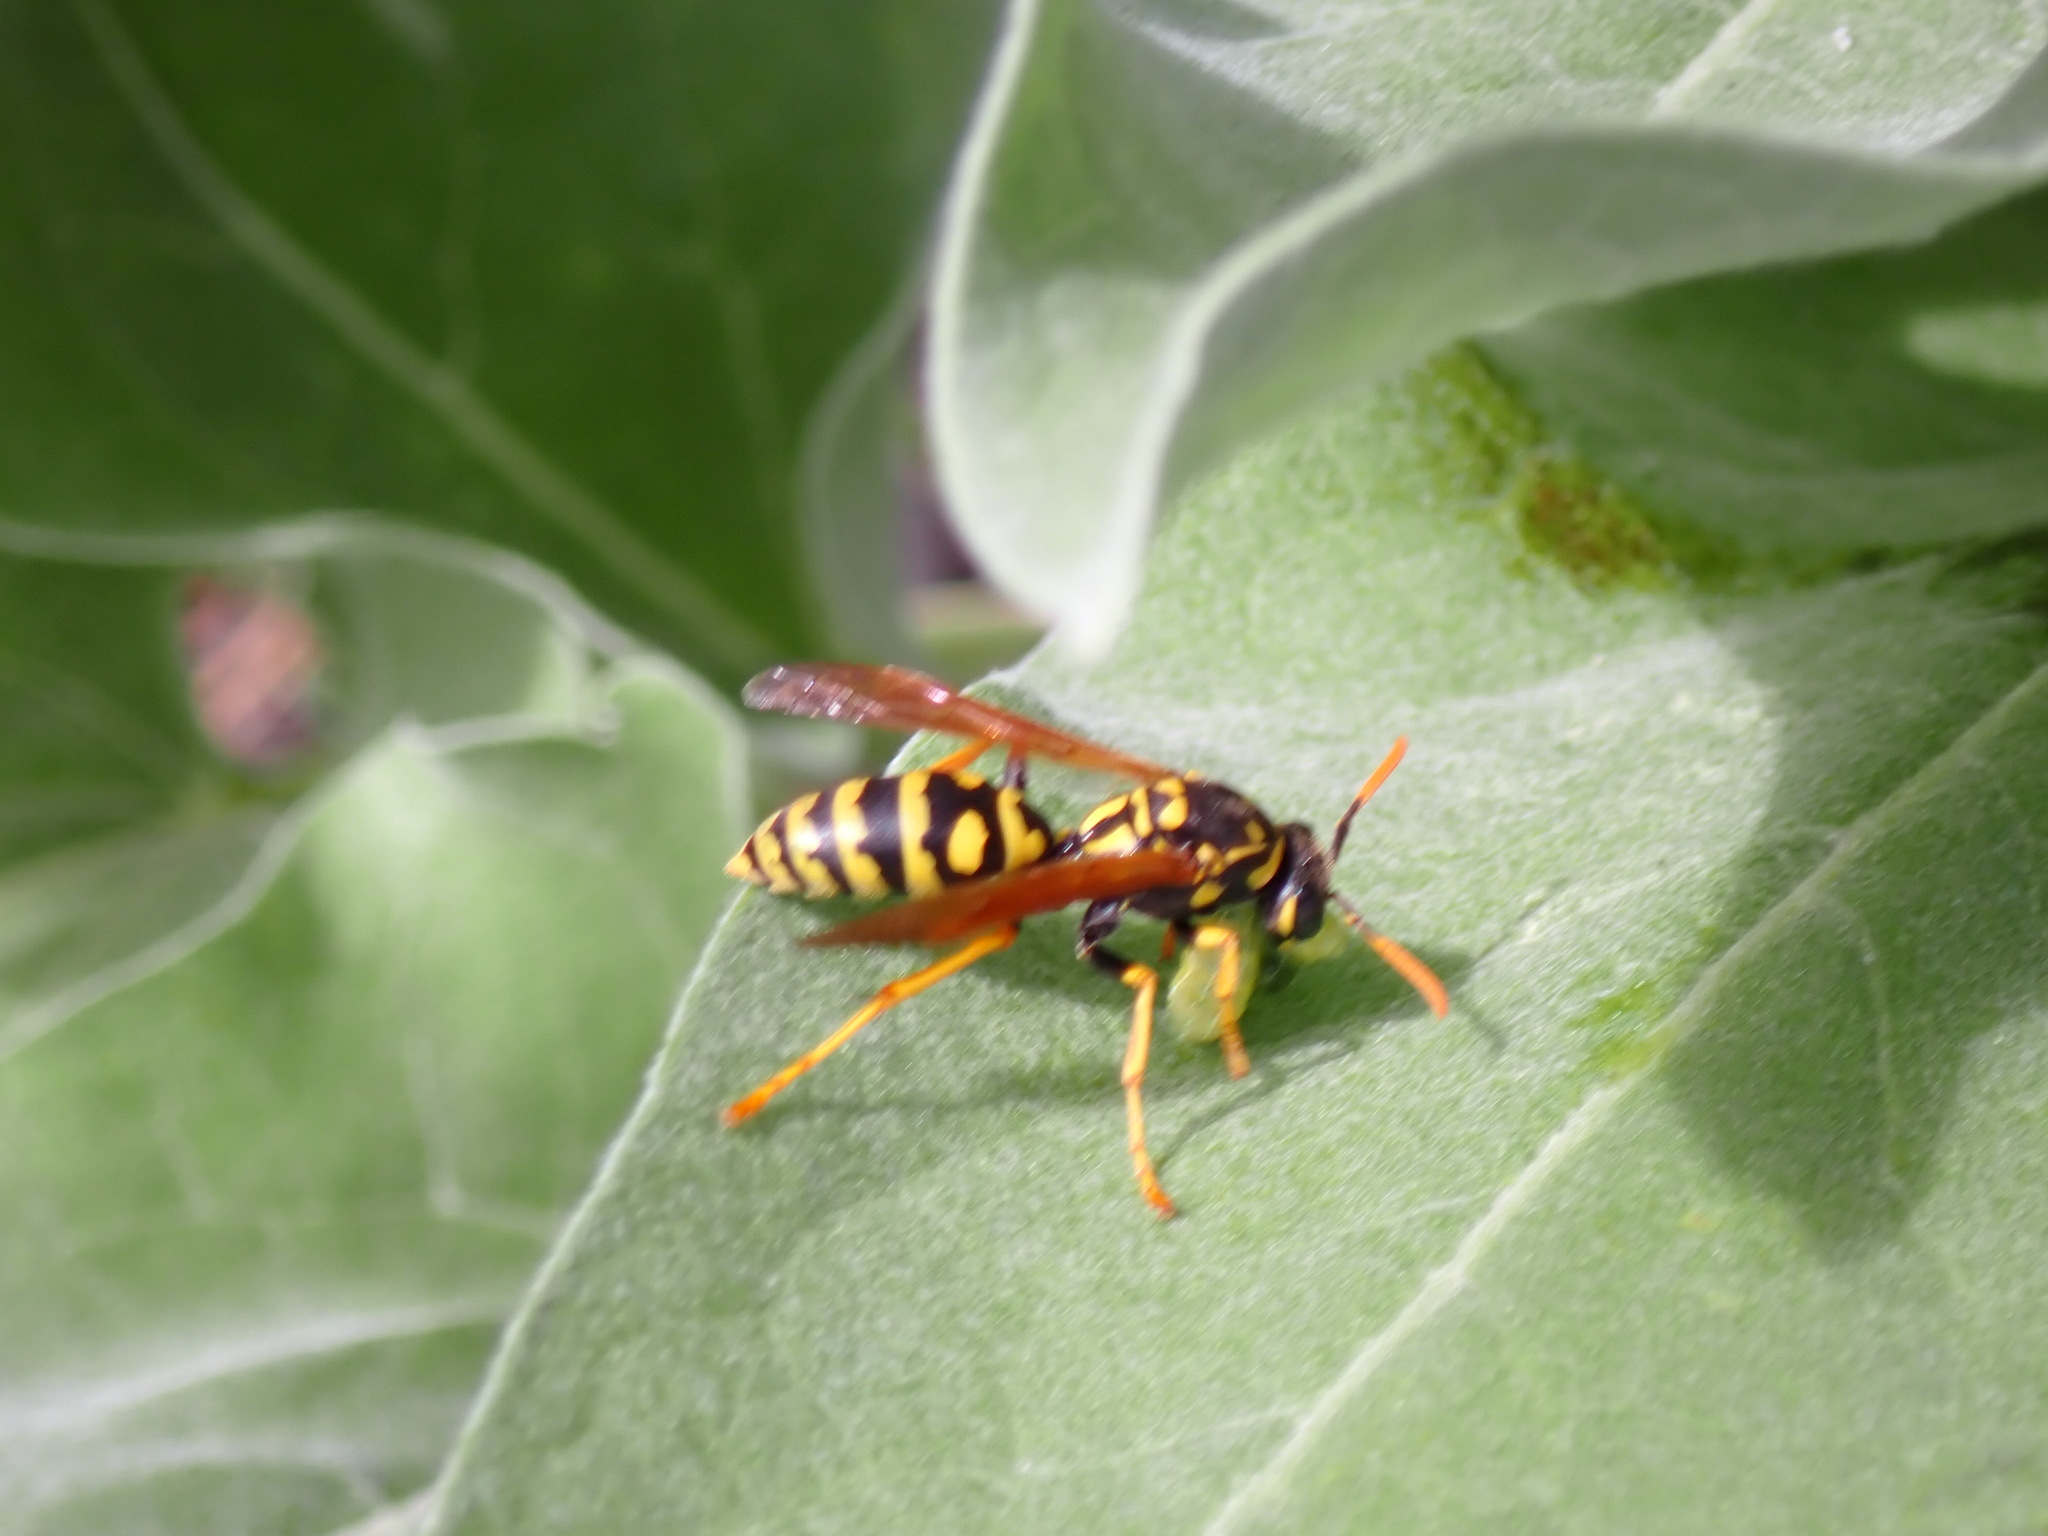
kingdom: Animalia
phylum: Arthropoda
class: Insecta
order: Hymenoptera
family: Eumenidae
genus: Polistes
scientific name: Polistes dominula
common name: Paper wasp
